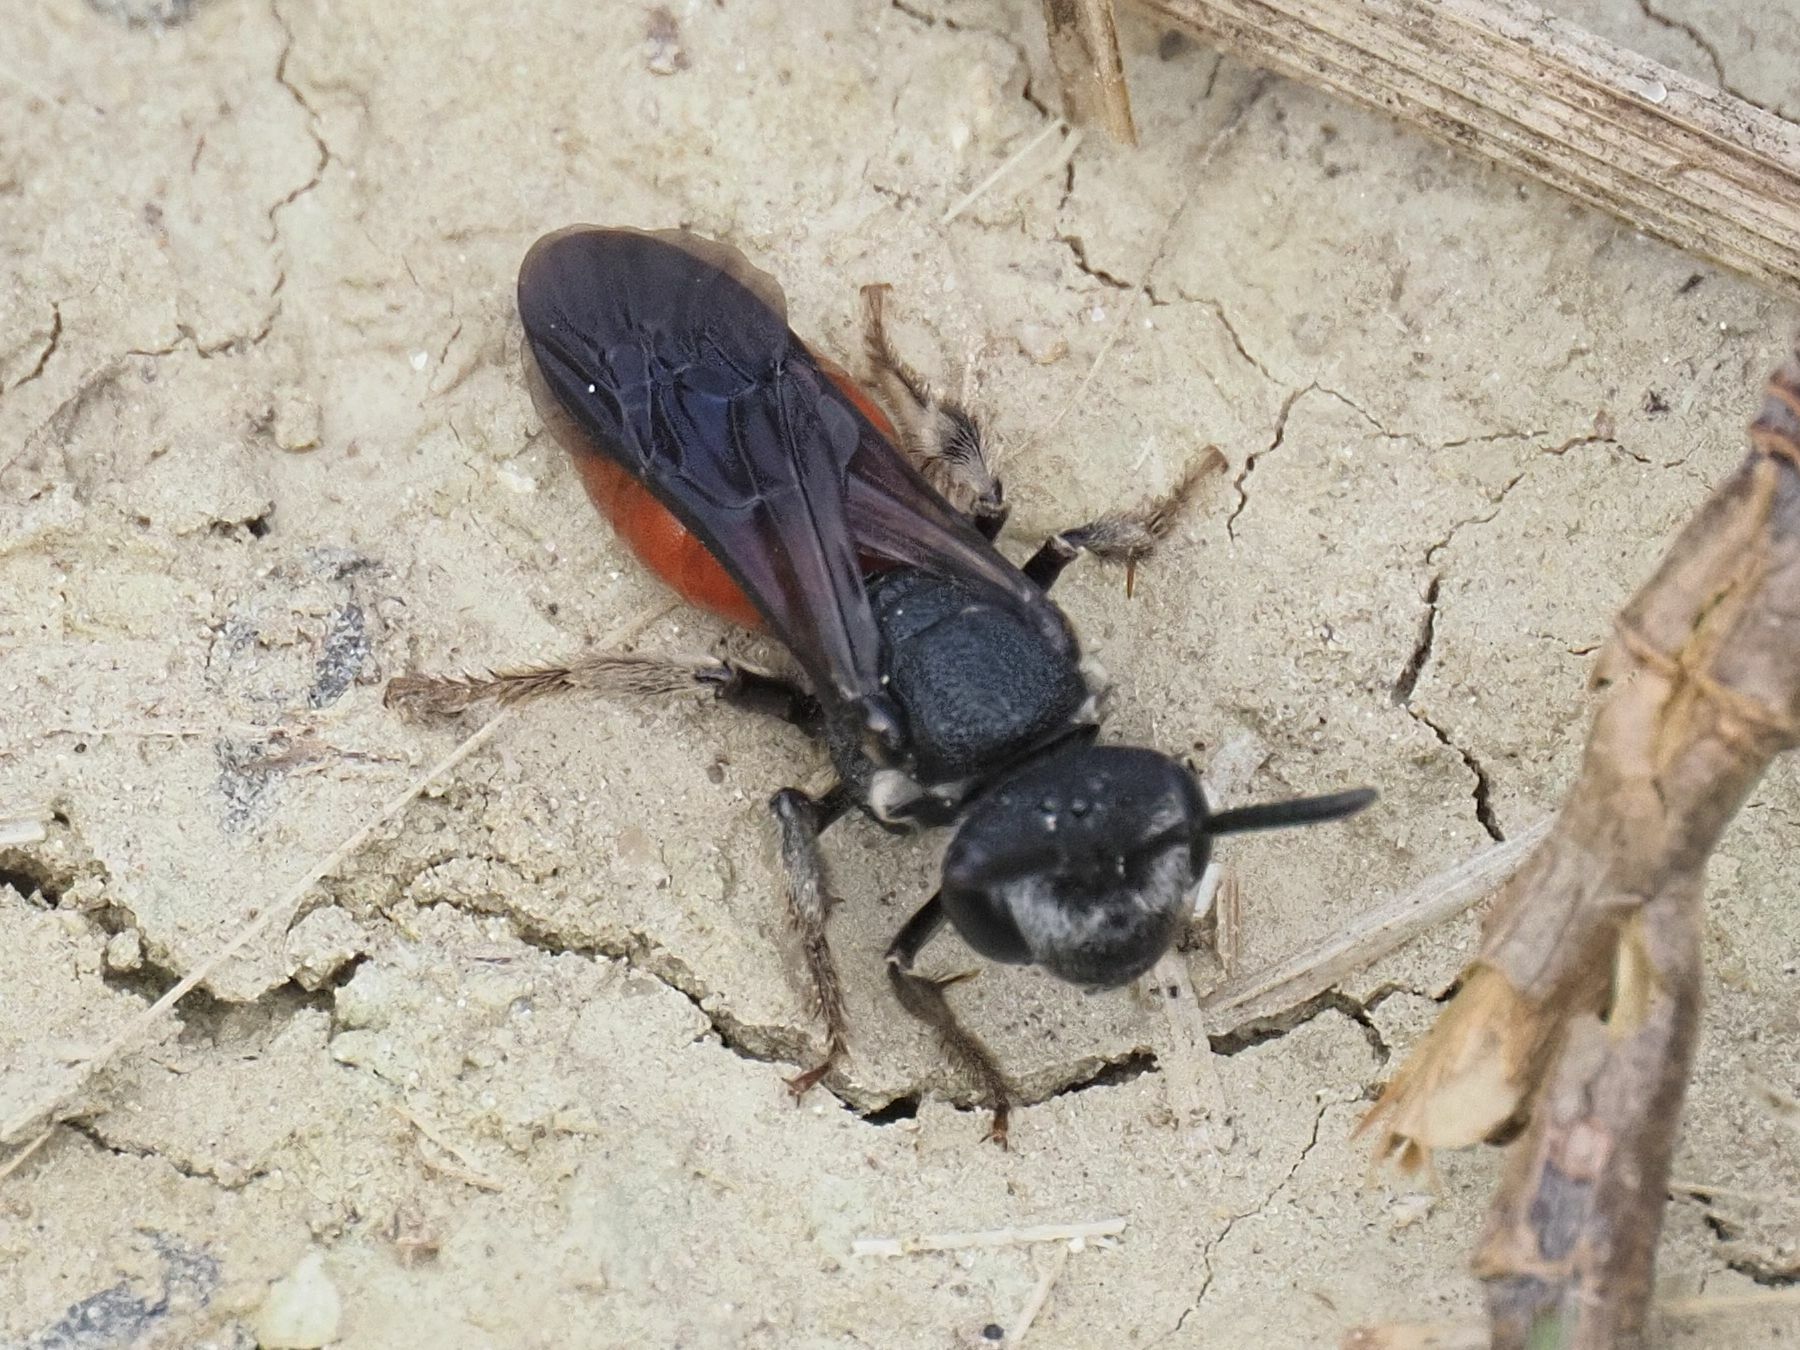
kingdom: Animalia
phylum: Arthropoda
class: Insecta
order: Hymenoptera
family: Halictidae
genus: Sphecodes
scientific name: Sphecodes albilabris
